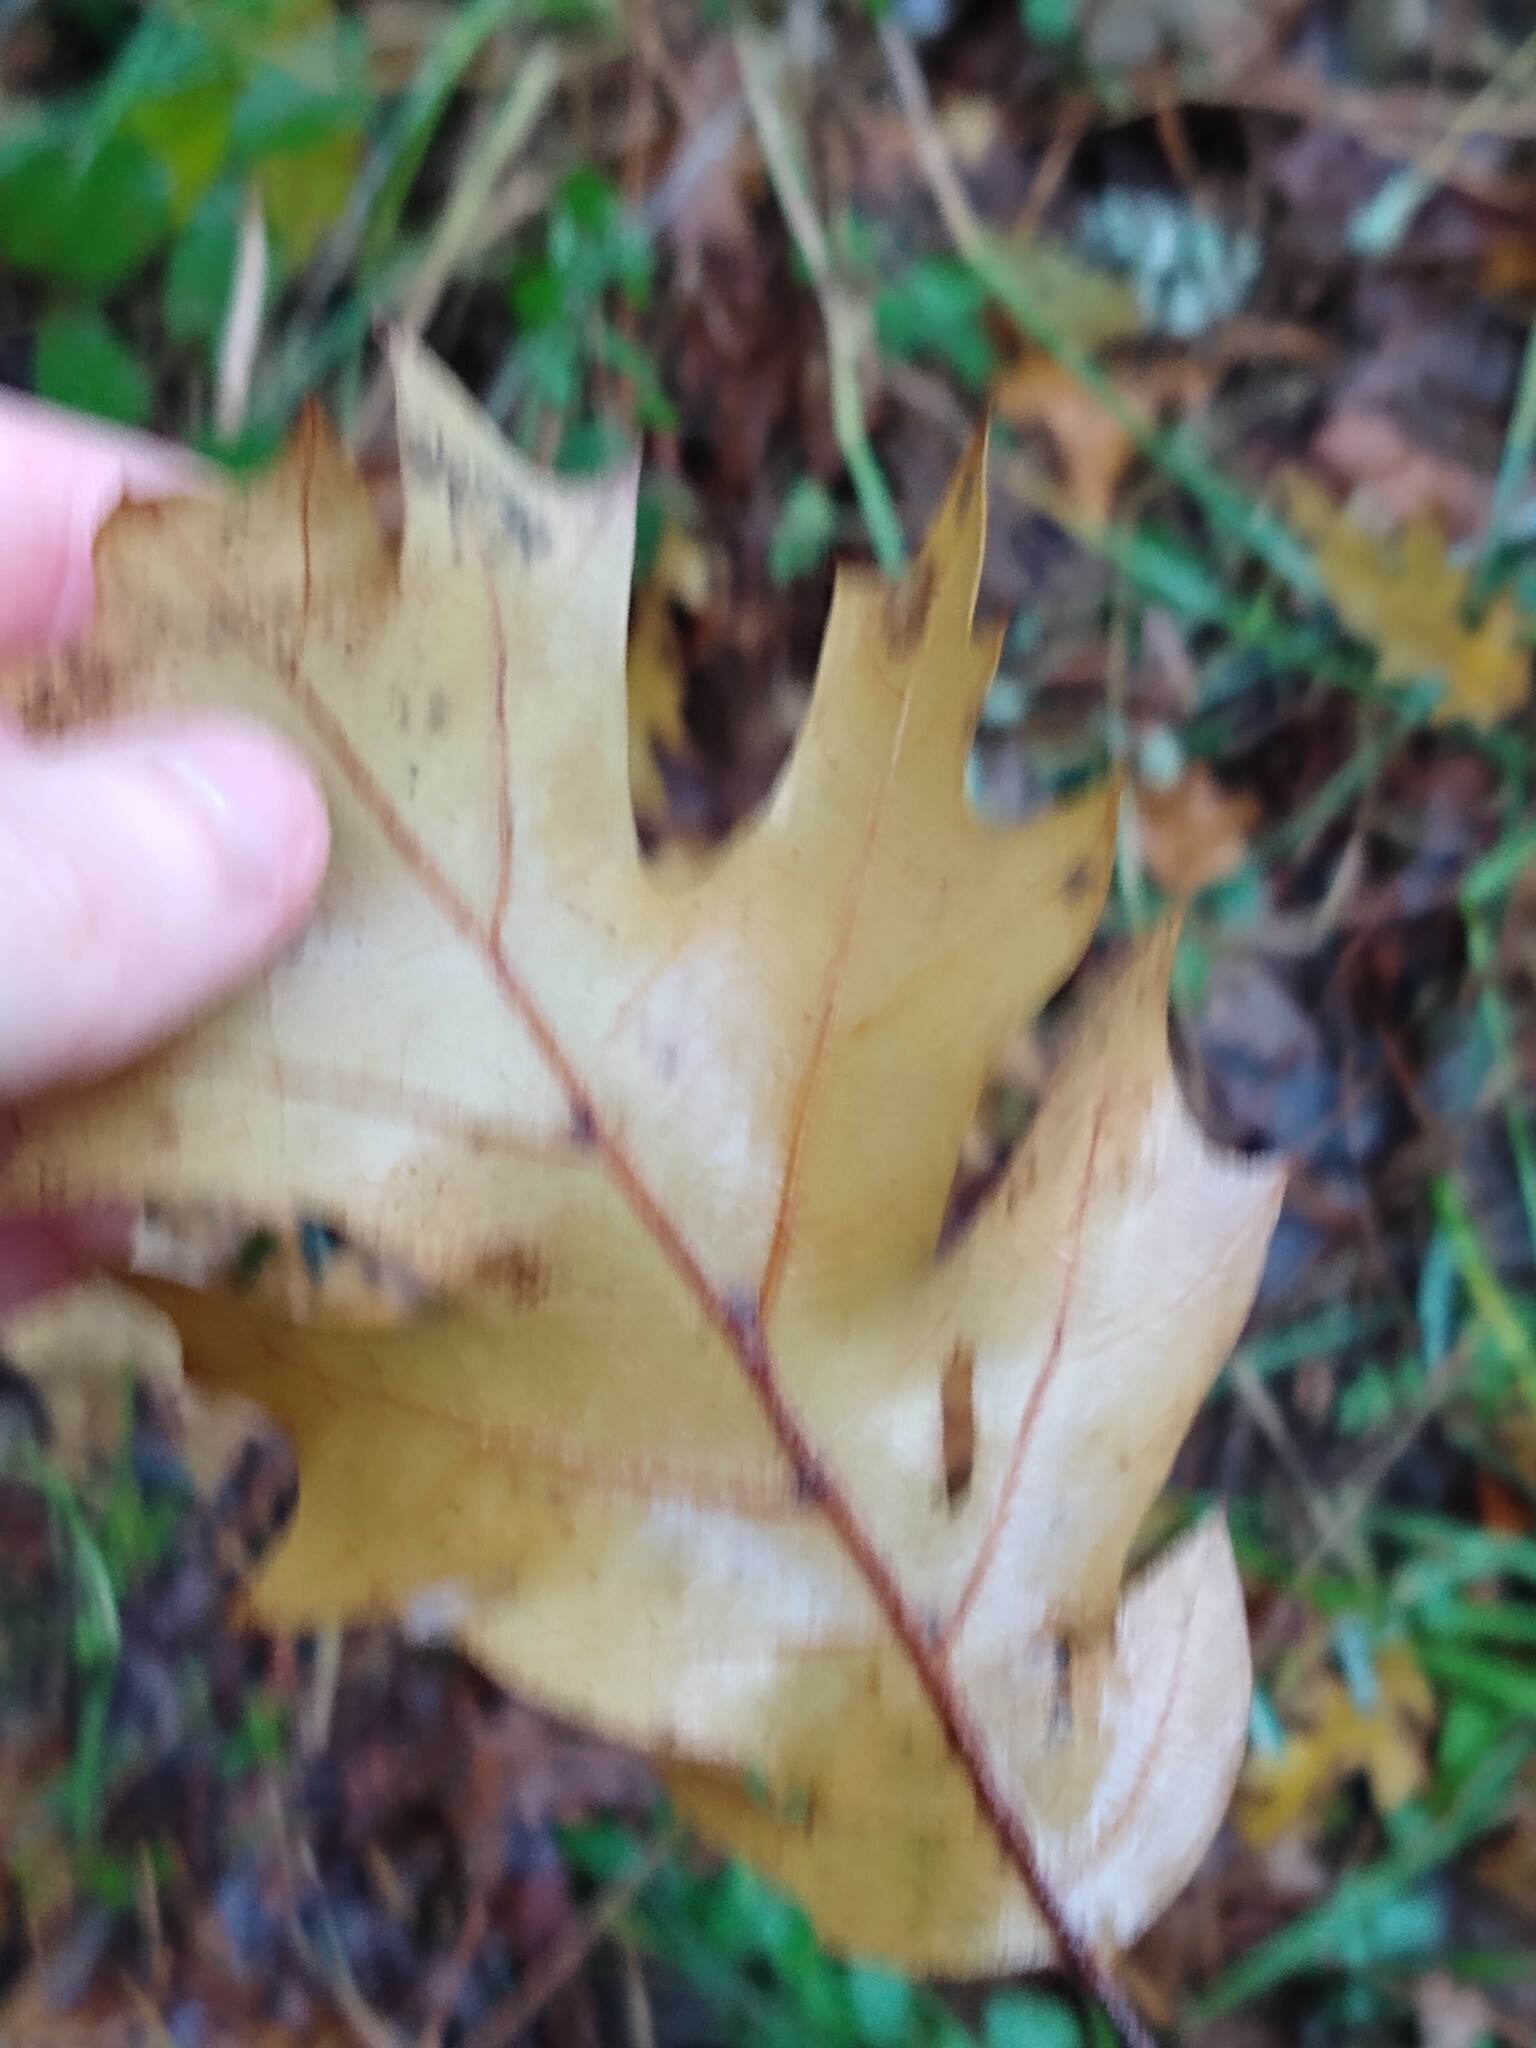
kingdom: Plantae
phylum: Tracheophyta
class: Magnoliopsida
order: Fagales
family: Fagaceae
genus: Quercus
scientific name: Quercus kelloggii
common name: California black oak
